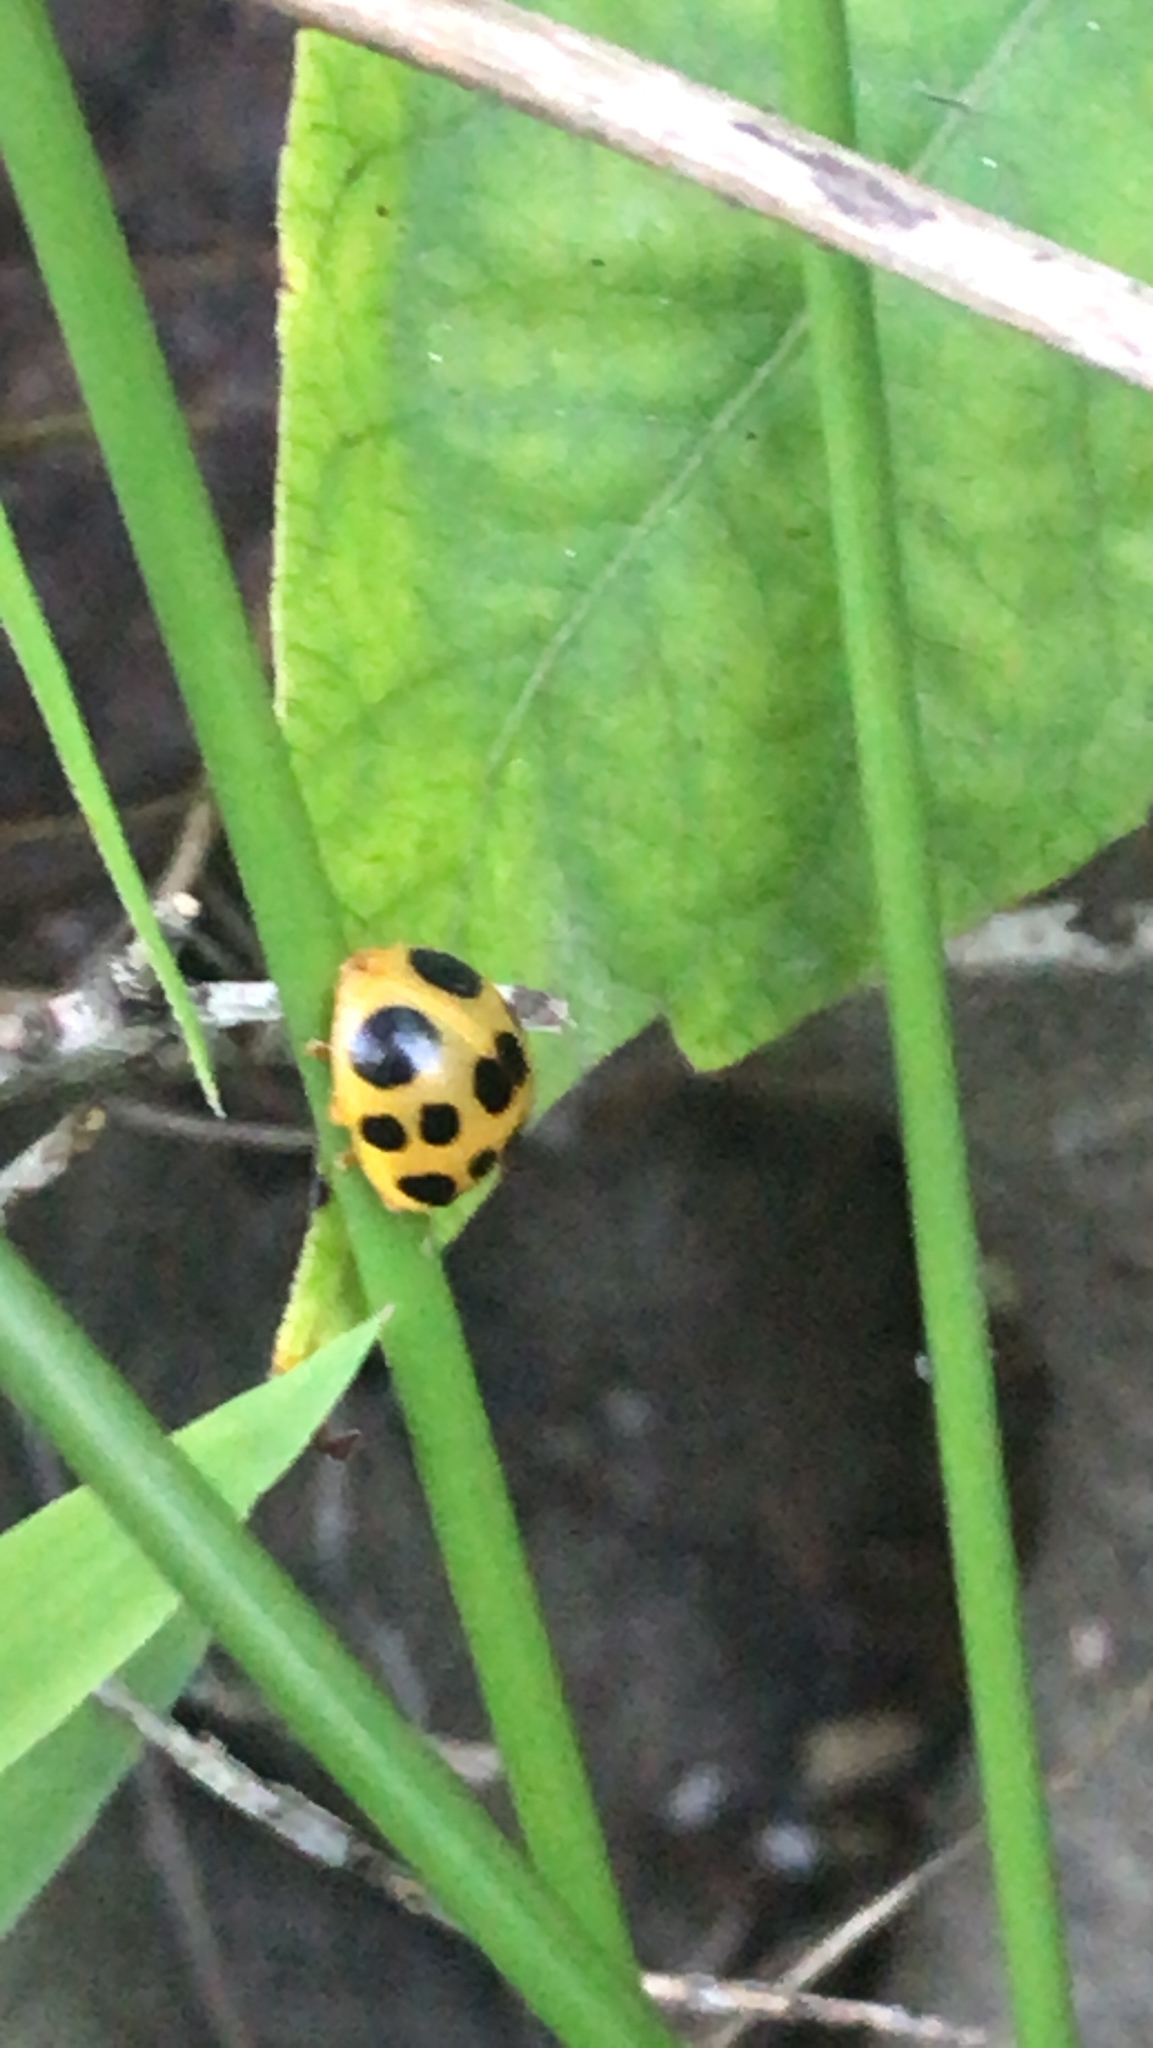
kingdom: Animalia
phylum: Arthropoda
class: Insecta
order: Coleoptera
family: Coccinellidae
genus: Epilachna
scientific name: Epilachna borealis
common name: Squash beetle
